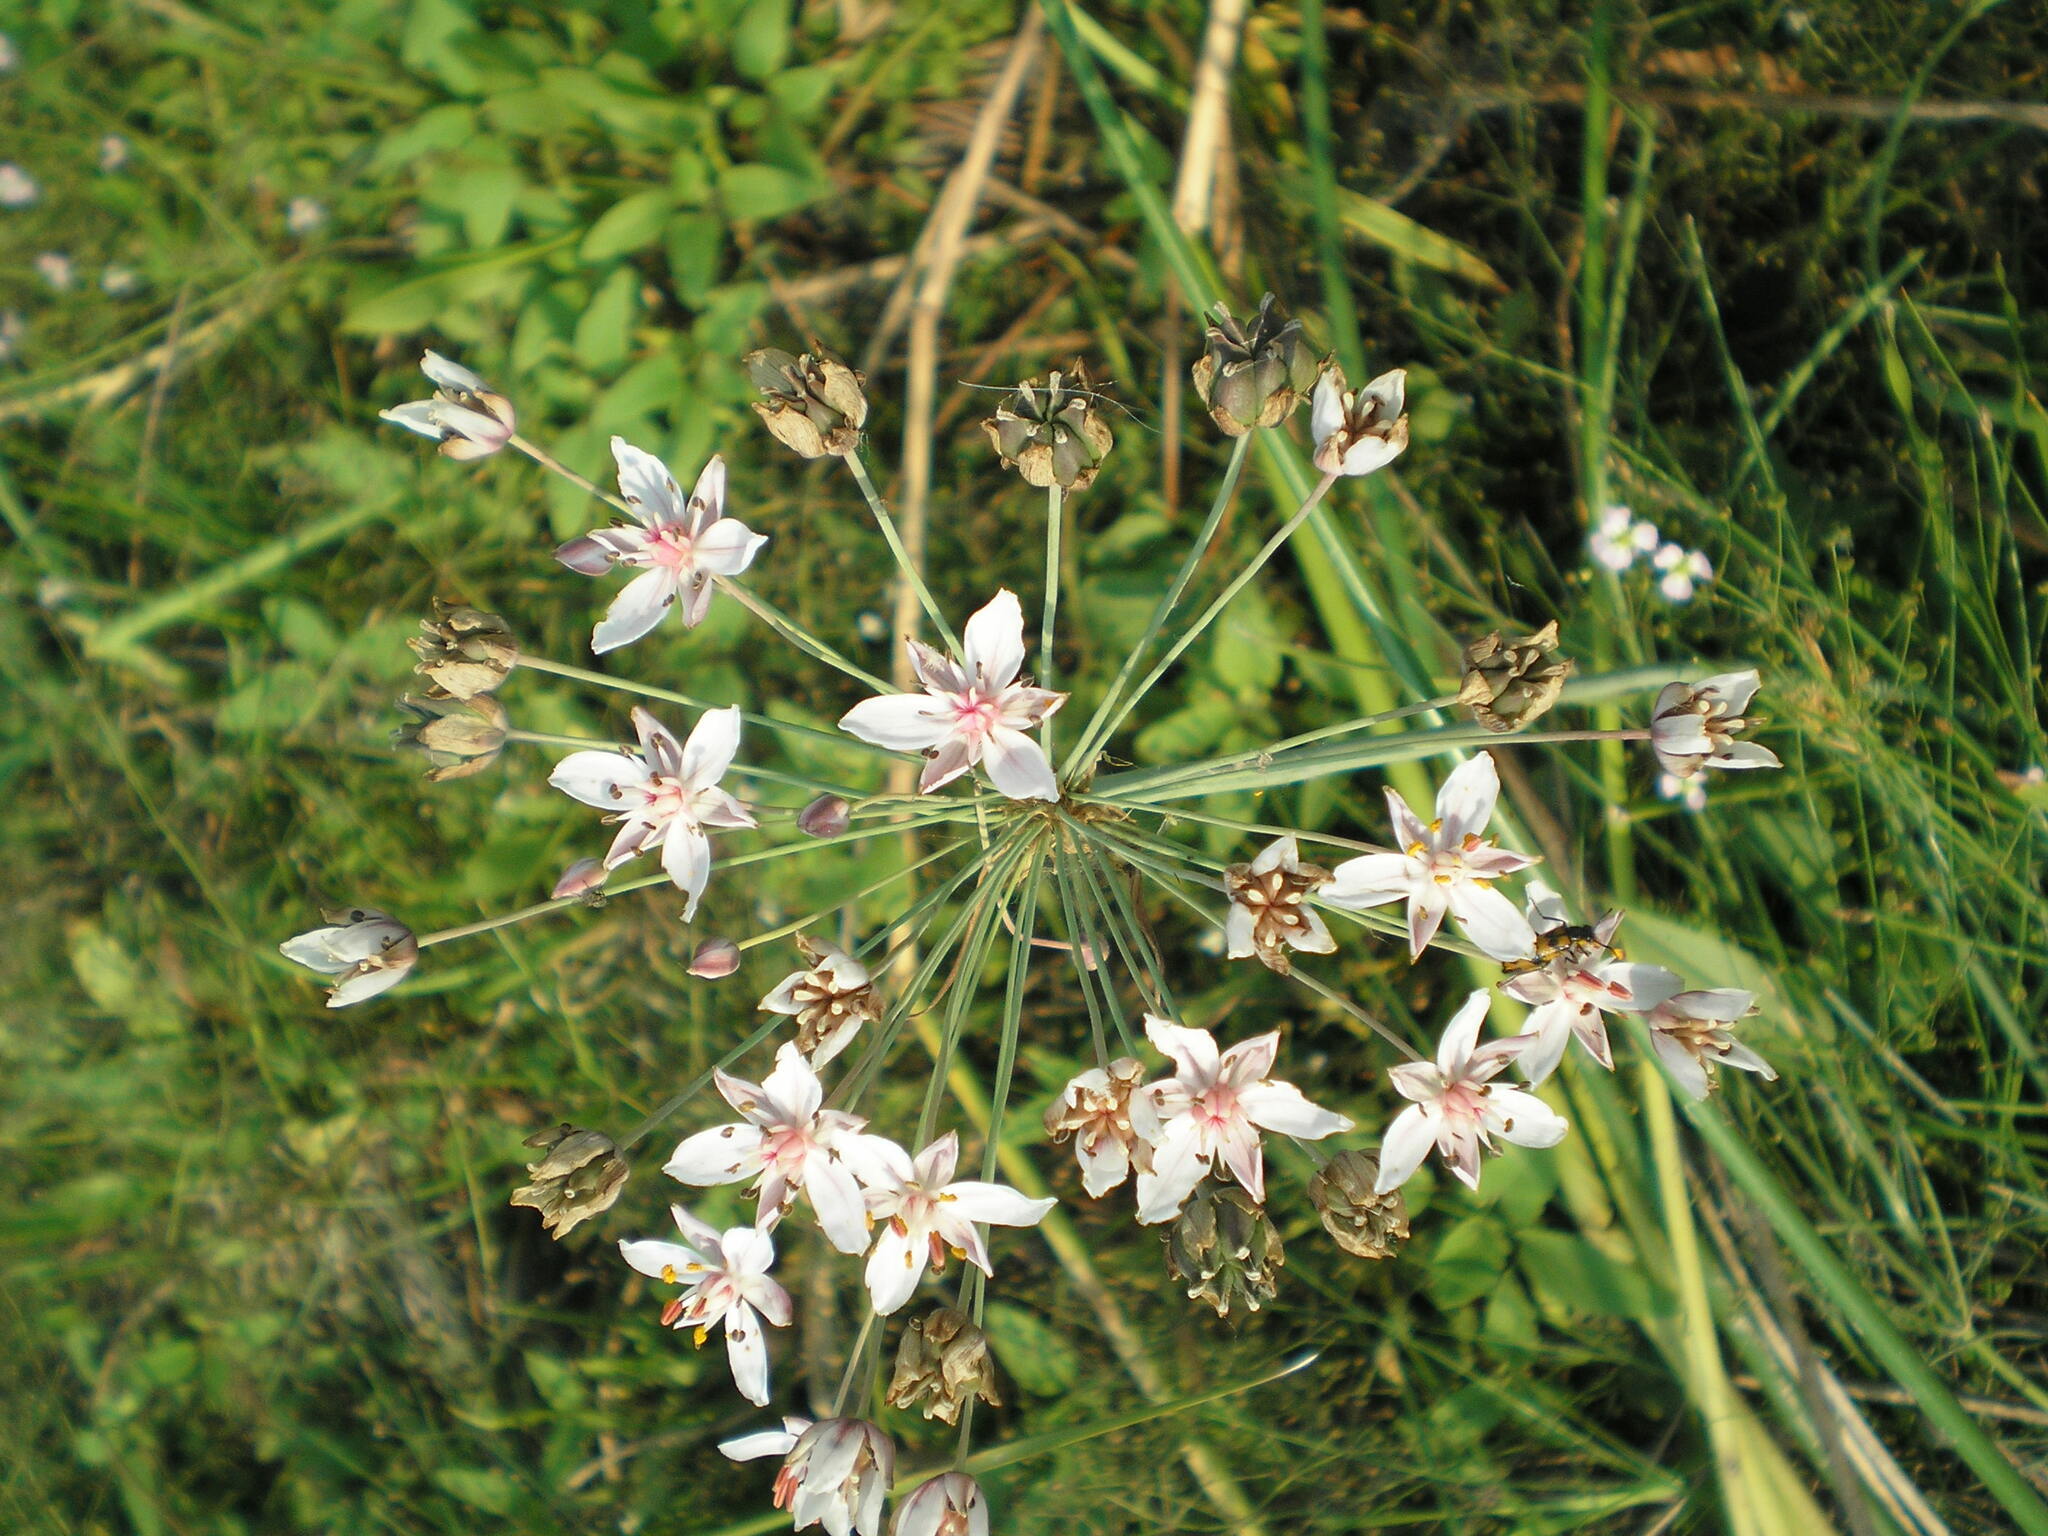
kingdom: Plantae
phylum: Tracheophyta
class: Liliopsida
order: Alismatales
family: Butomaceae
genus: Butomus
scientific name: Butomus umbellatus
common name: Flowering-rush
